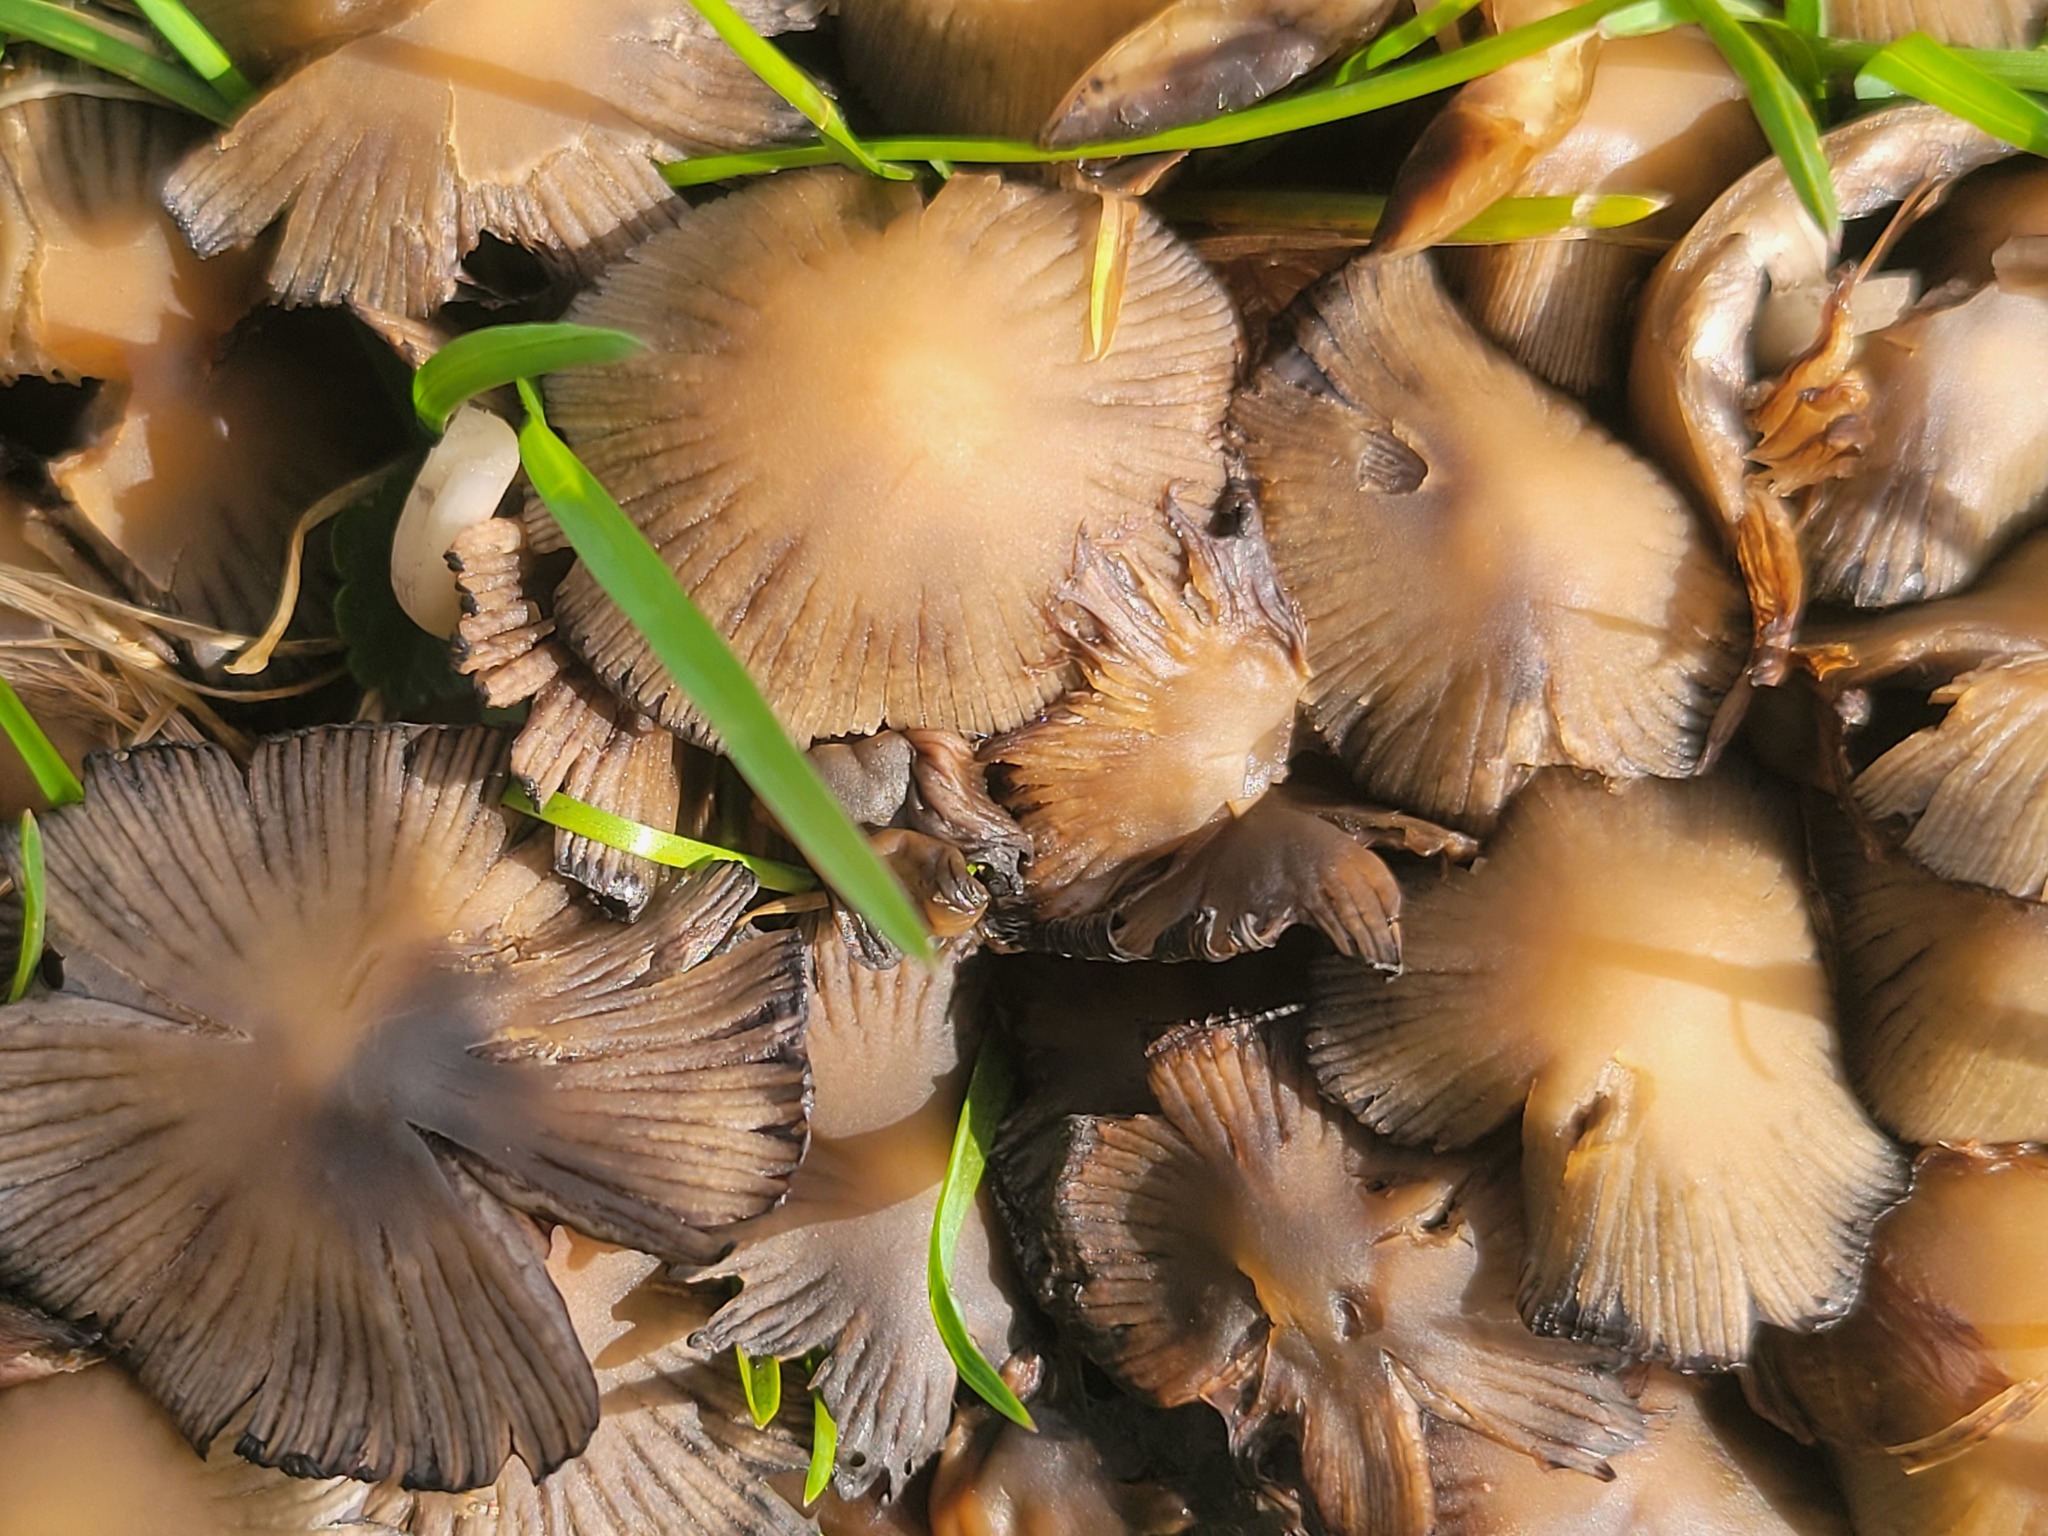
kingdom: Fungi
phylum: Basidiomycota
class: Agaricomycetes
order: Agaricales
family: Psathyrellaceae
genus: Coprinellus
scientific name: Coprinellus micaceus
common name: Glistening ink-cap
